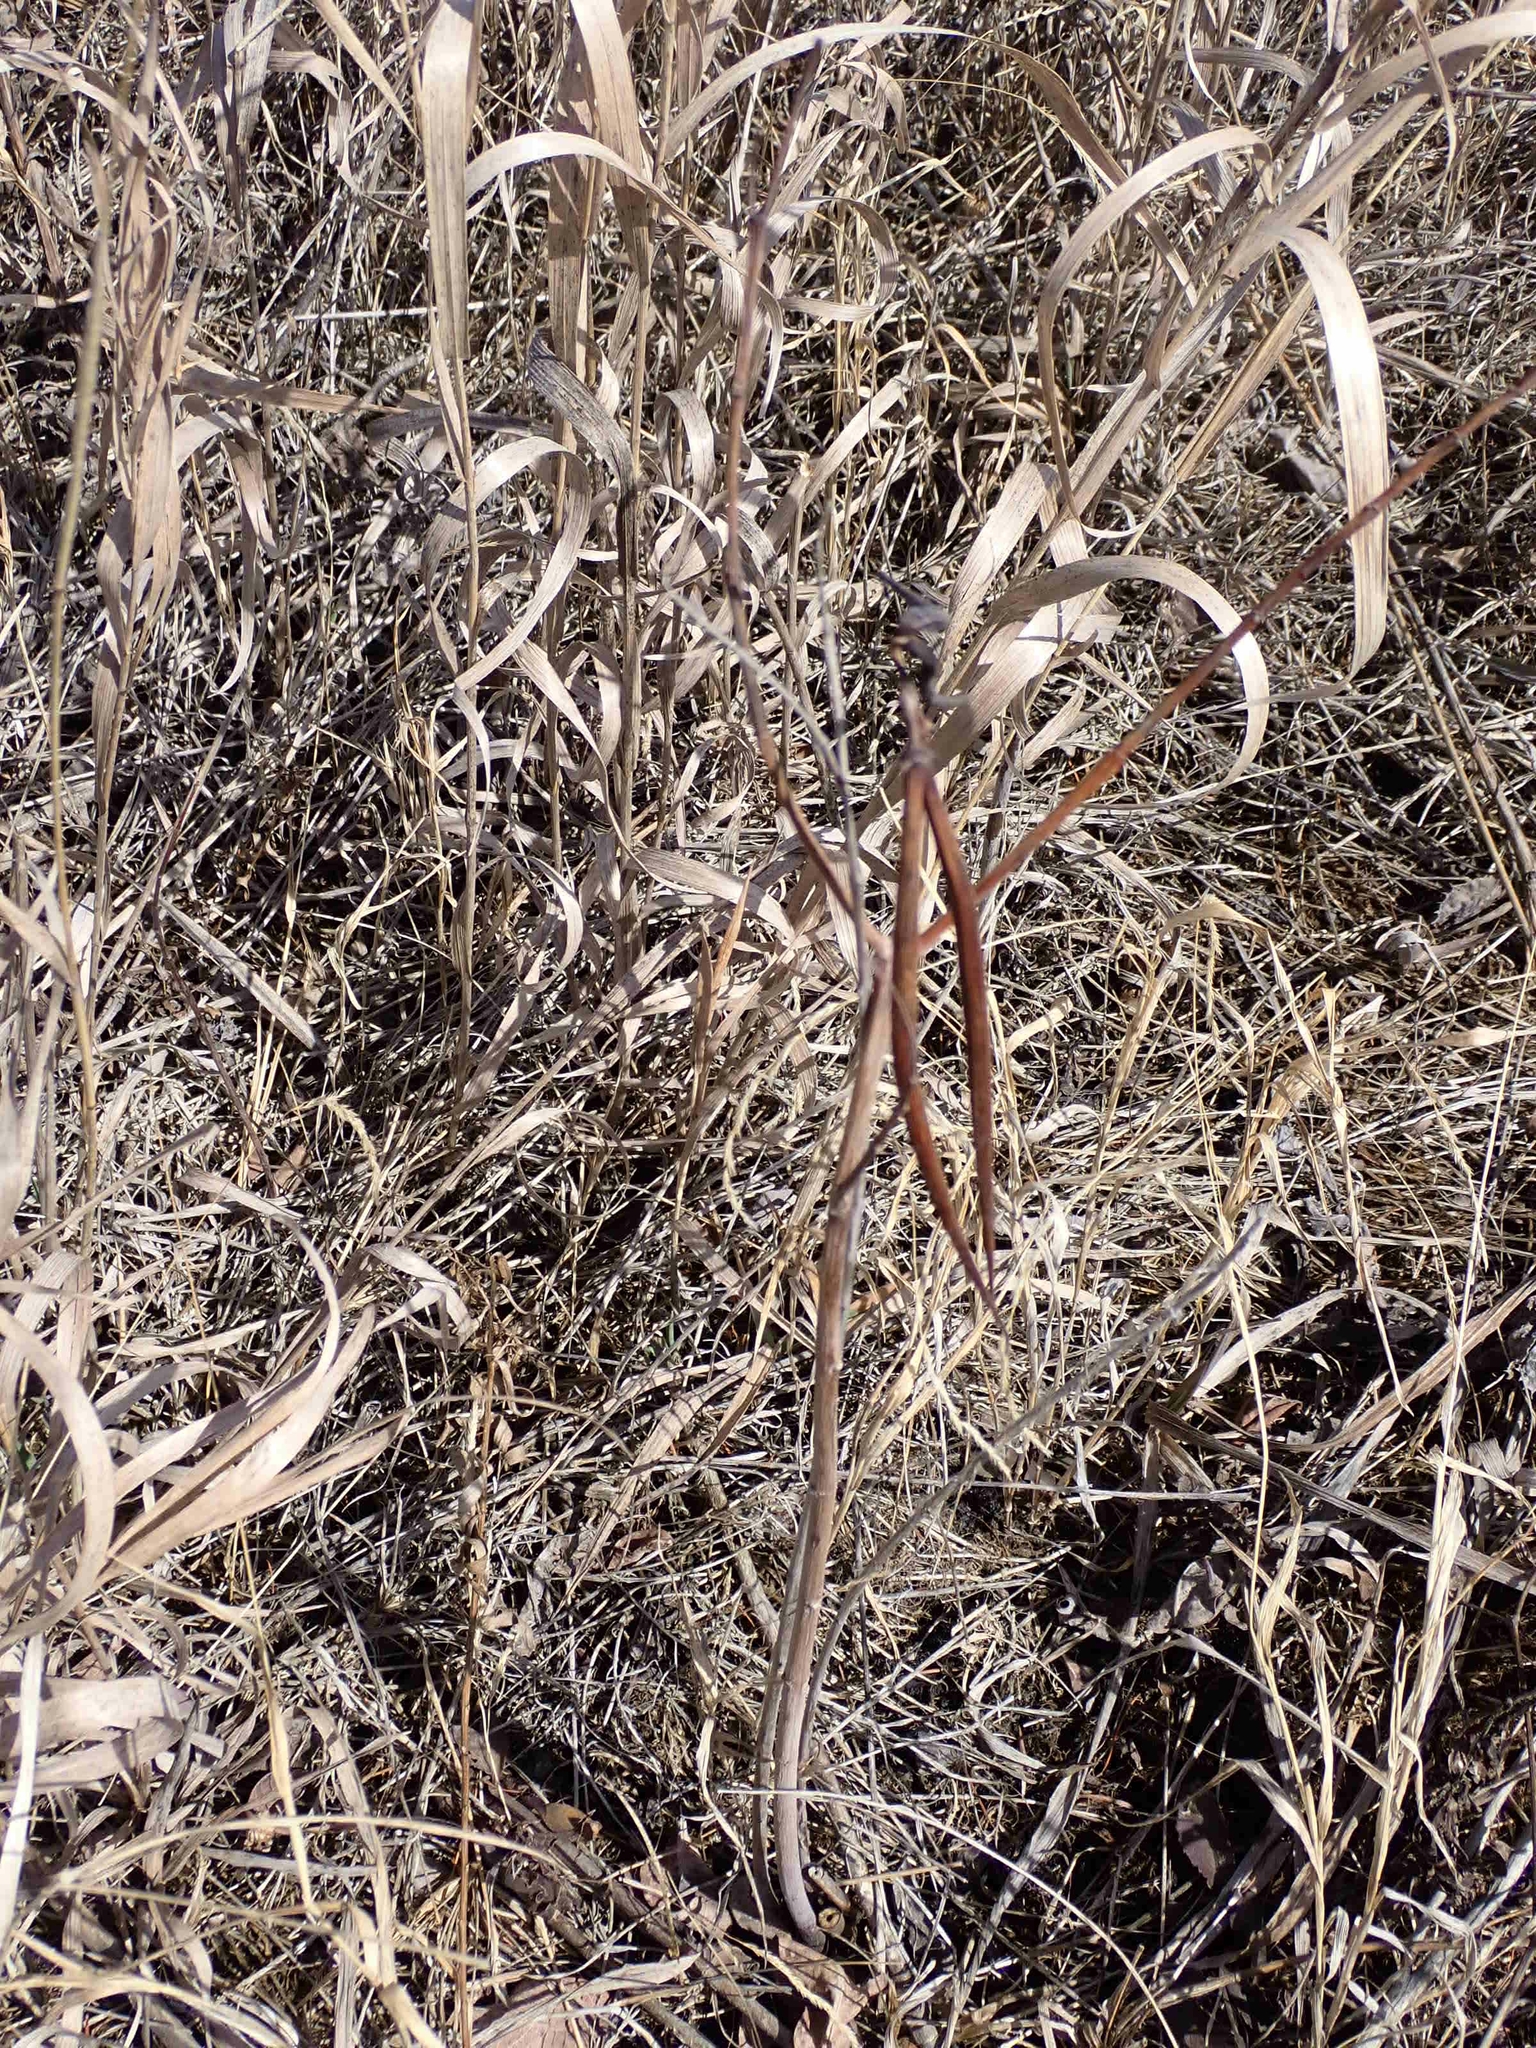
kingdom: Plantae
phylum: Tracheophyta
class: Magnoliopsida
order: Gentianales
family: Apocynaceae
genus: Apocynum
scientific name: Apocynum cannabinum
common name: Hemp dogbane
